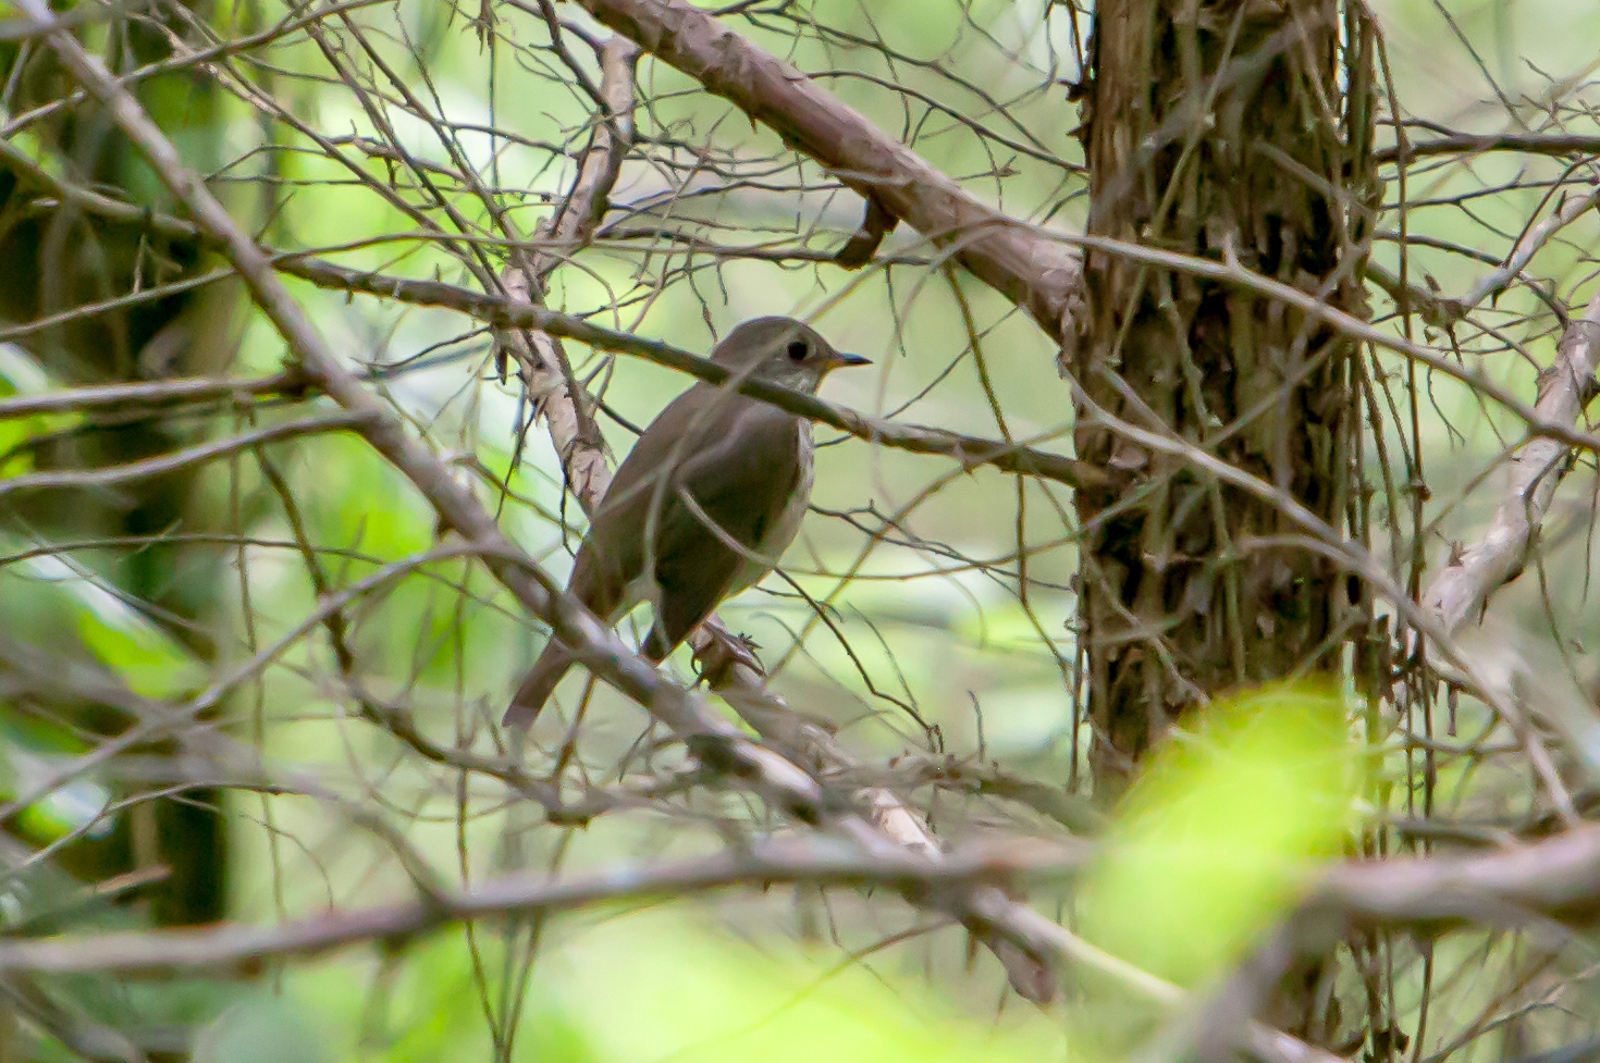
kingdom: Animalia
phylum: Chordata
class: Aves
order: Passeriformes
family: Turdidae
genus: Catharus
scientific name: Catharus minimus
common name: Grey-cheeked thrush
